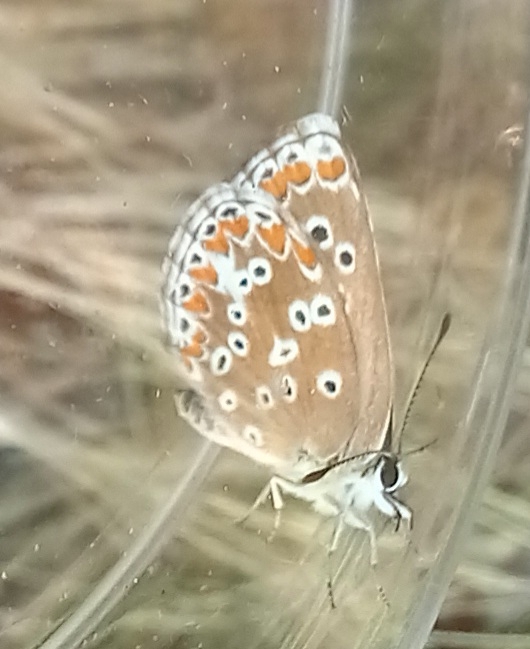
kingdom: Animalia
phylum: Arthropoda
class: Insecta
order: Lepidoptera
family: Lycaenidae
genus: Aricia
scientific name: Aricia cramera
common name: Eschscholtz´s brown  argus
